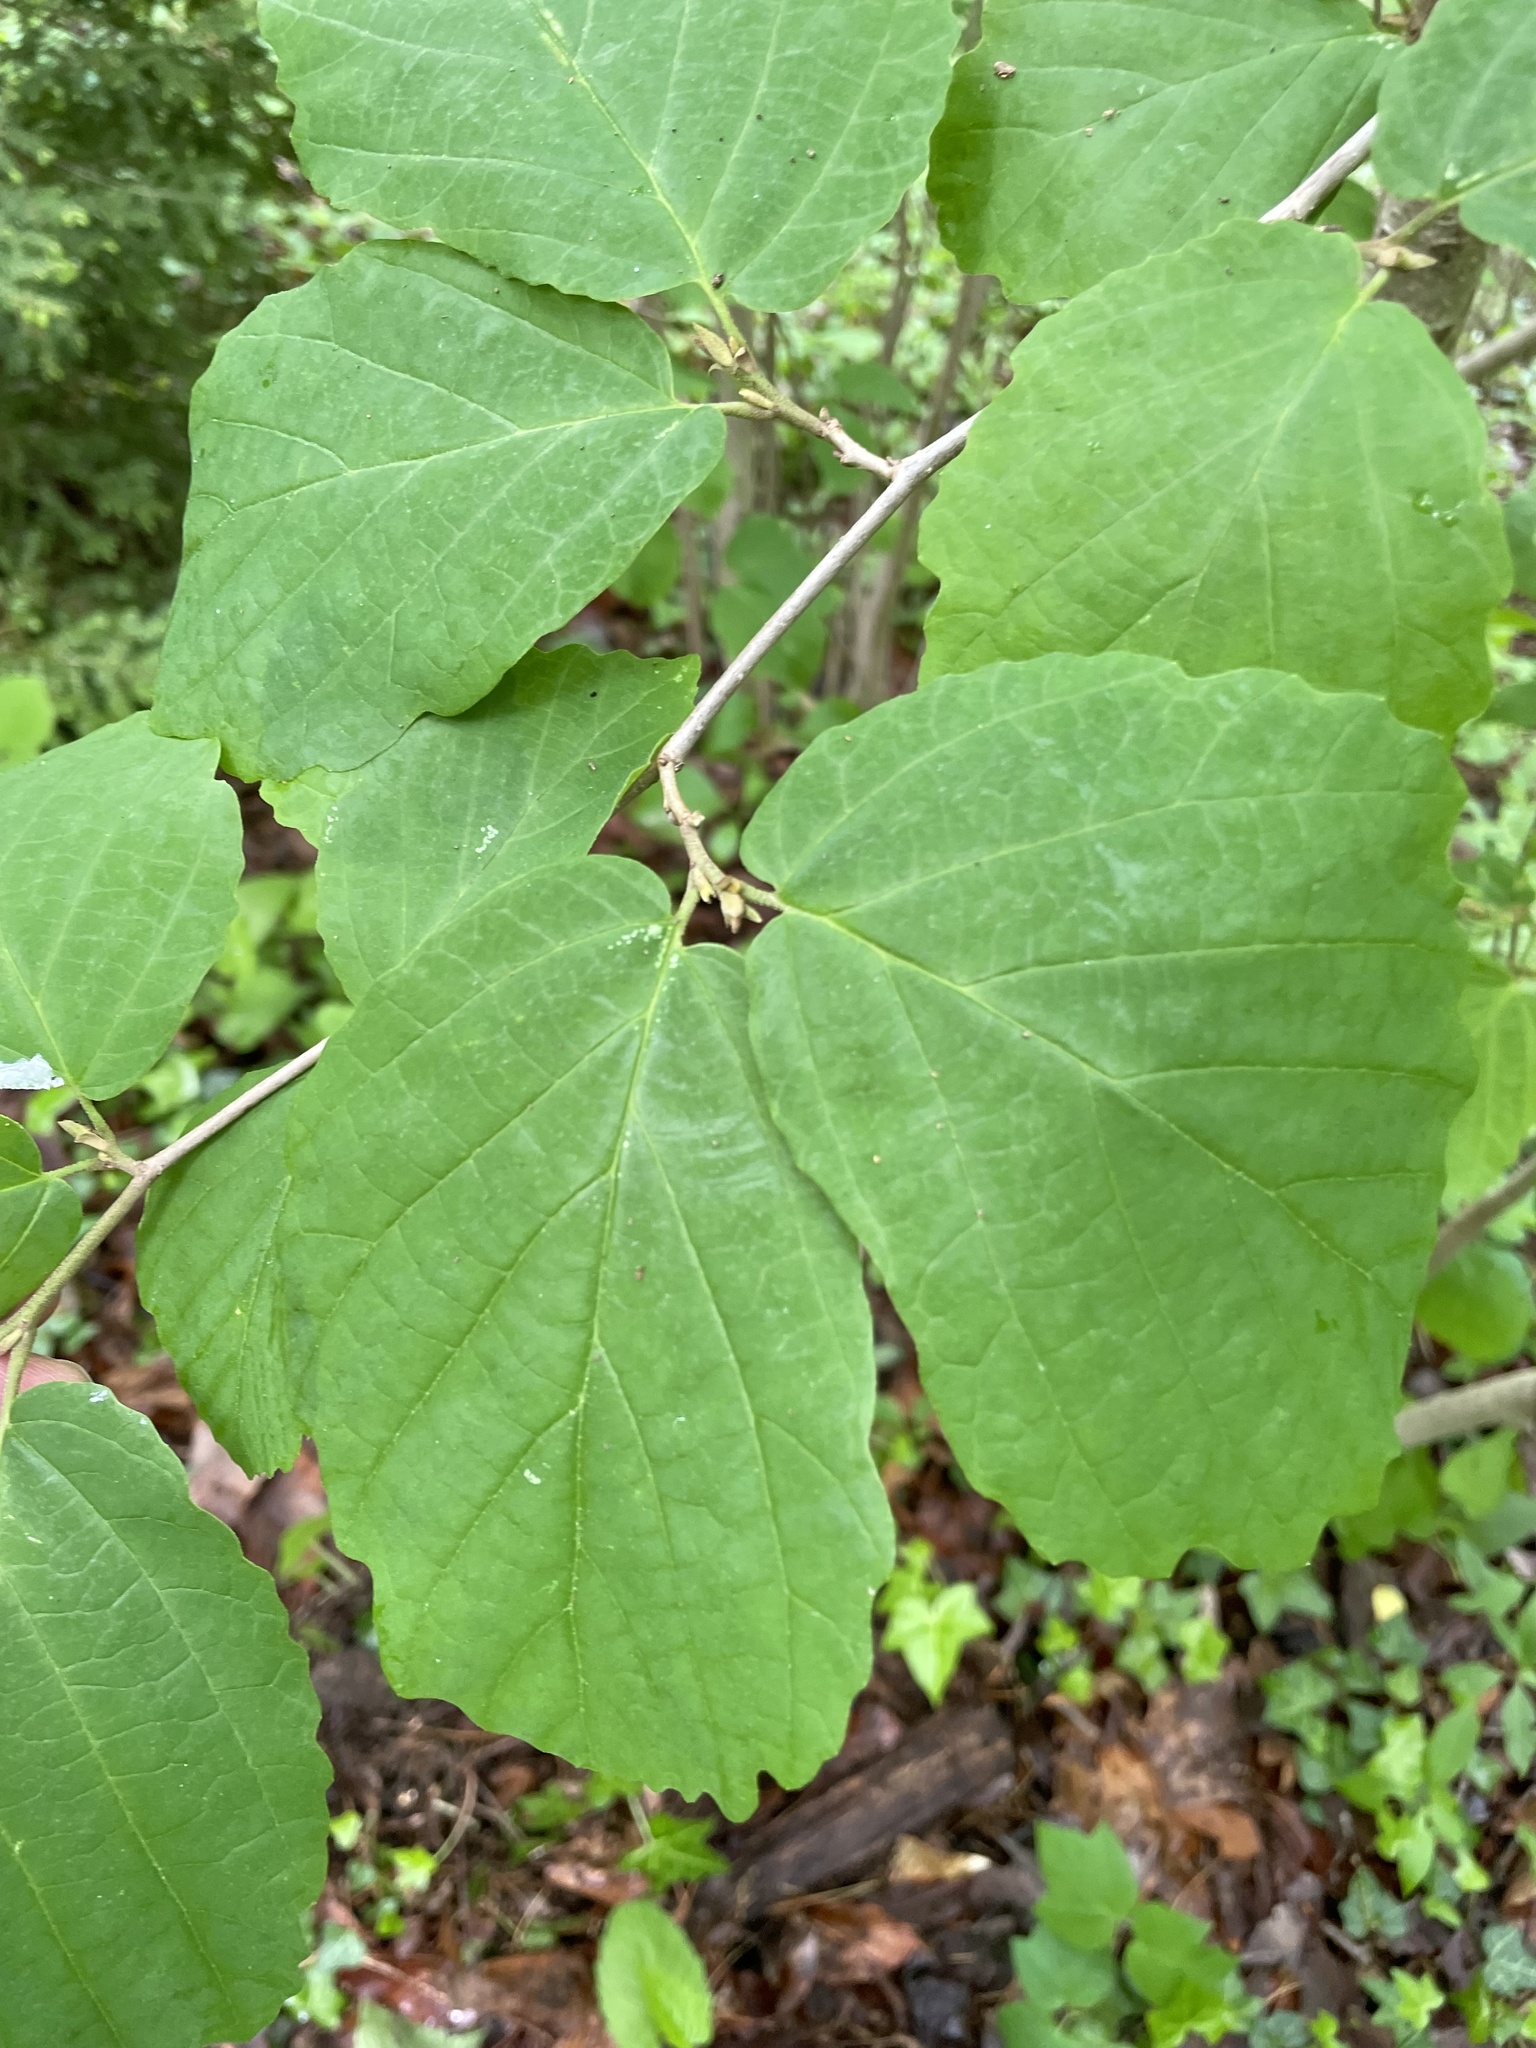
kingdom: Plantae
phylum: Tracheophyta
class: Magnoliopsida
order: Saxifragales
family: Hamamelidaceae
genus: Hamamelis
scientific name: Hamamelis virginiana
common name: Witch-hazel
